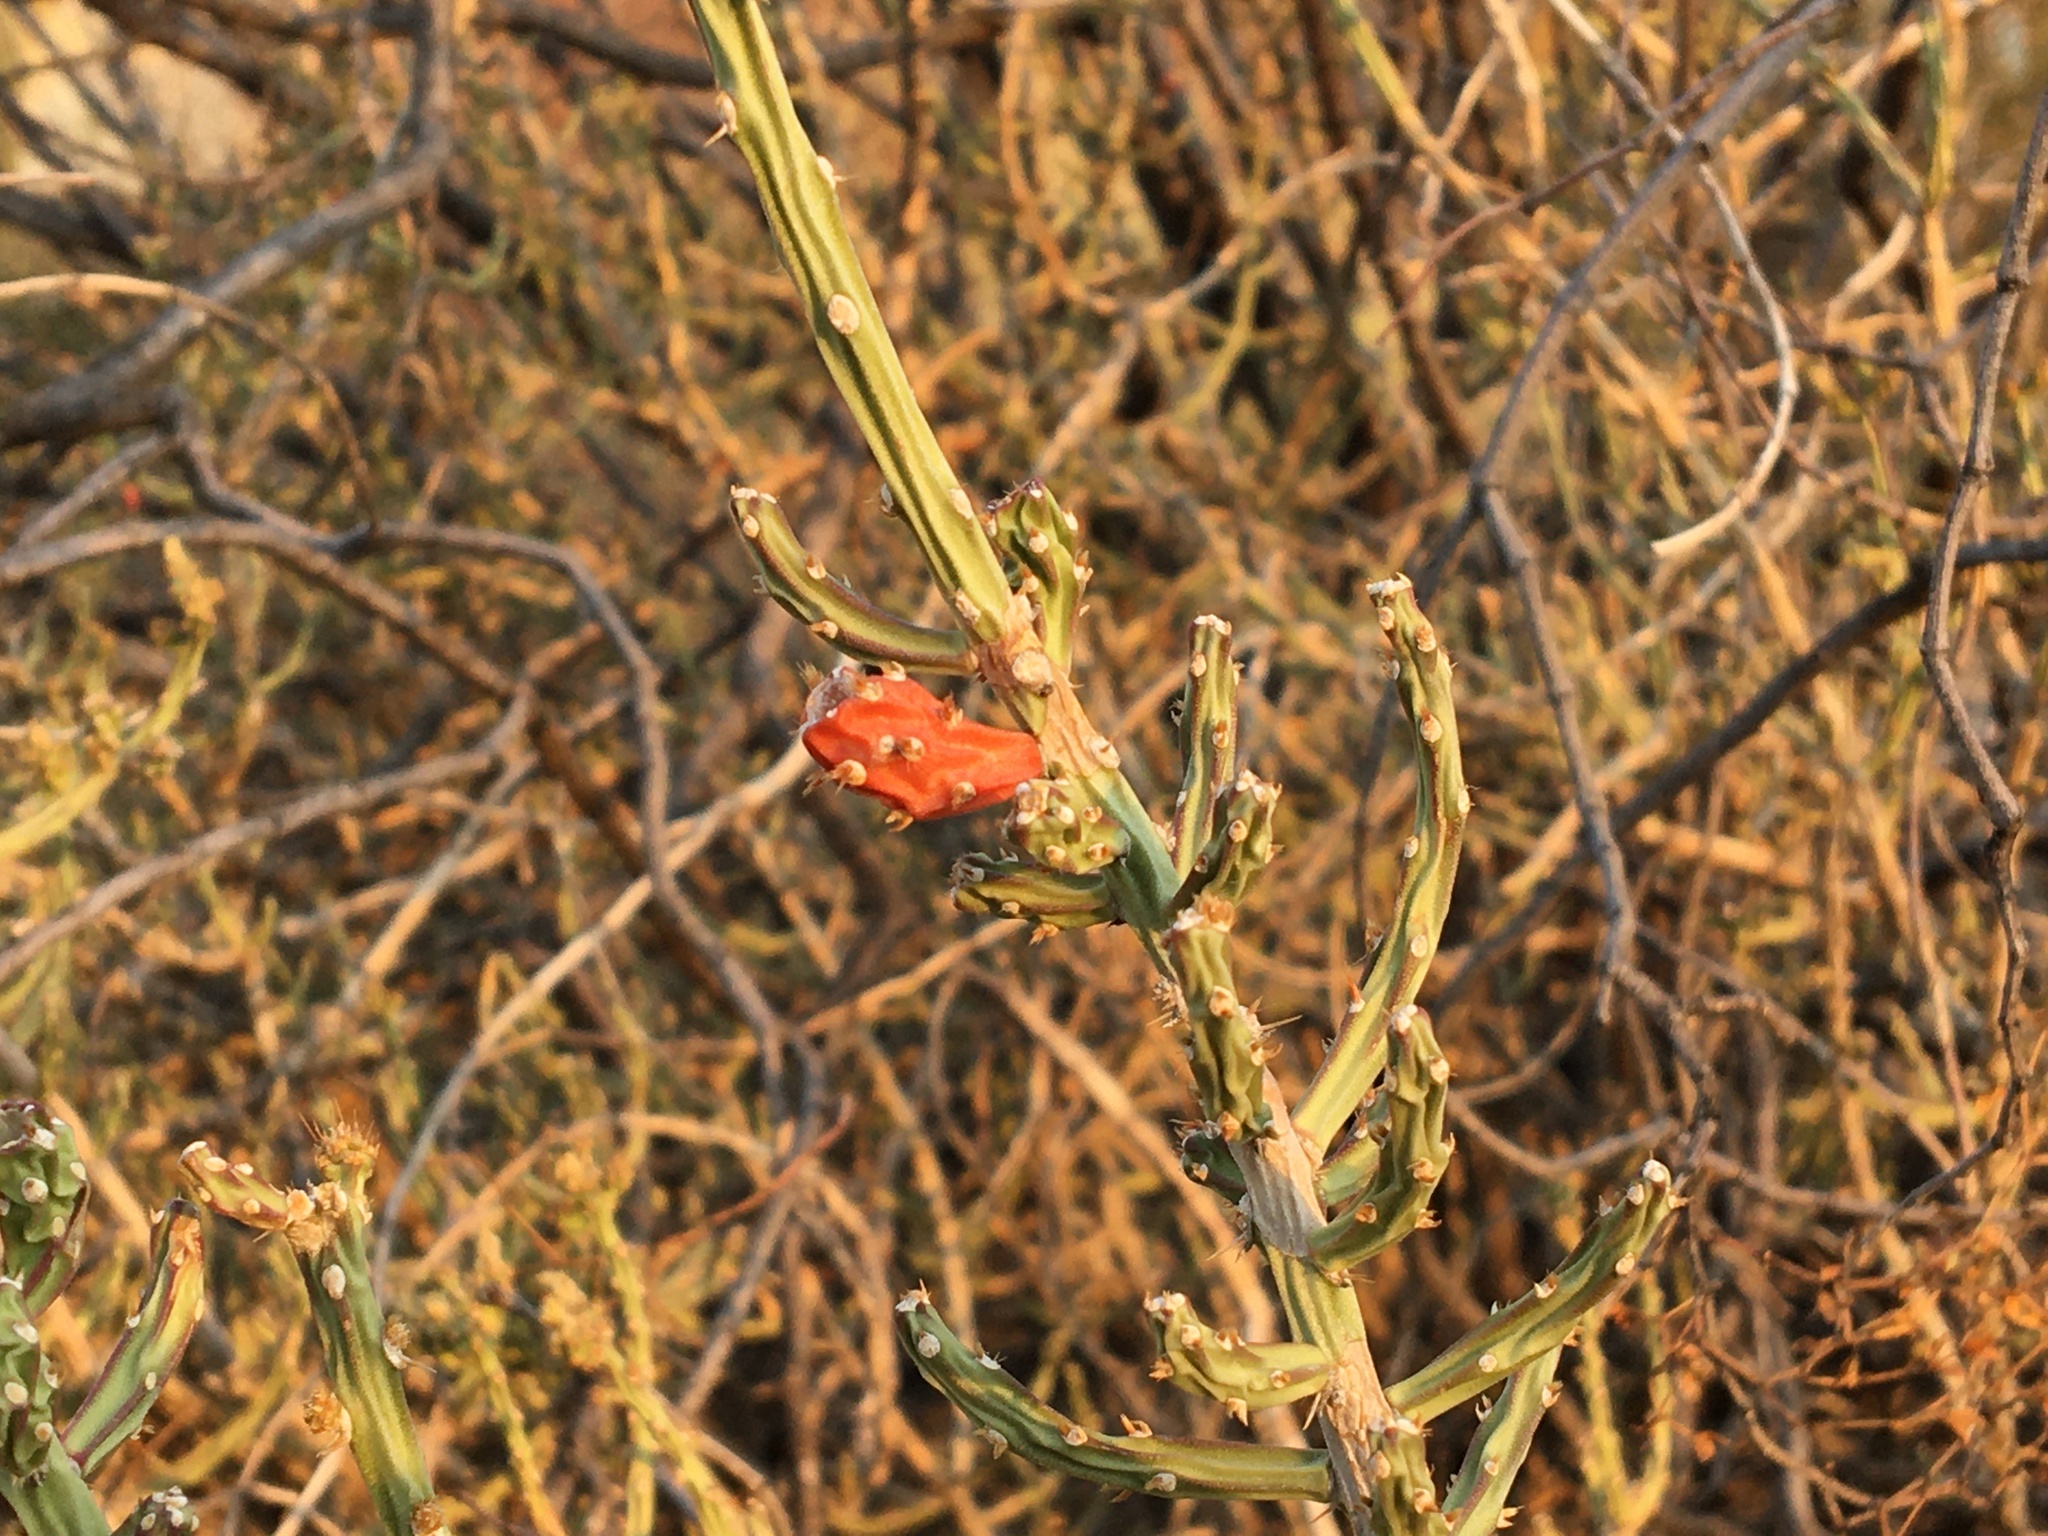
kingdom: Plantae
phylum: Tracheophyta
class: Magnoliopsida
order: Caryophyllales
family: Cactaceae
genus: Cylindropuntia
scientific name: Cylindropuntia leptocaulis
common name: Christmas cactus
